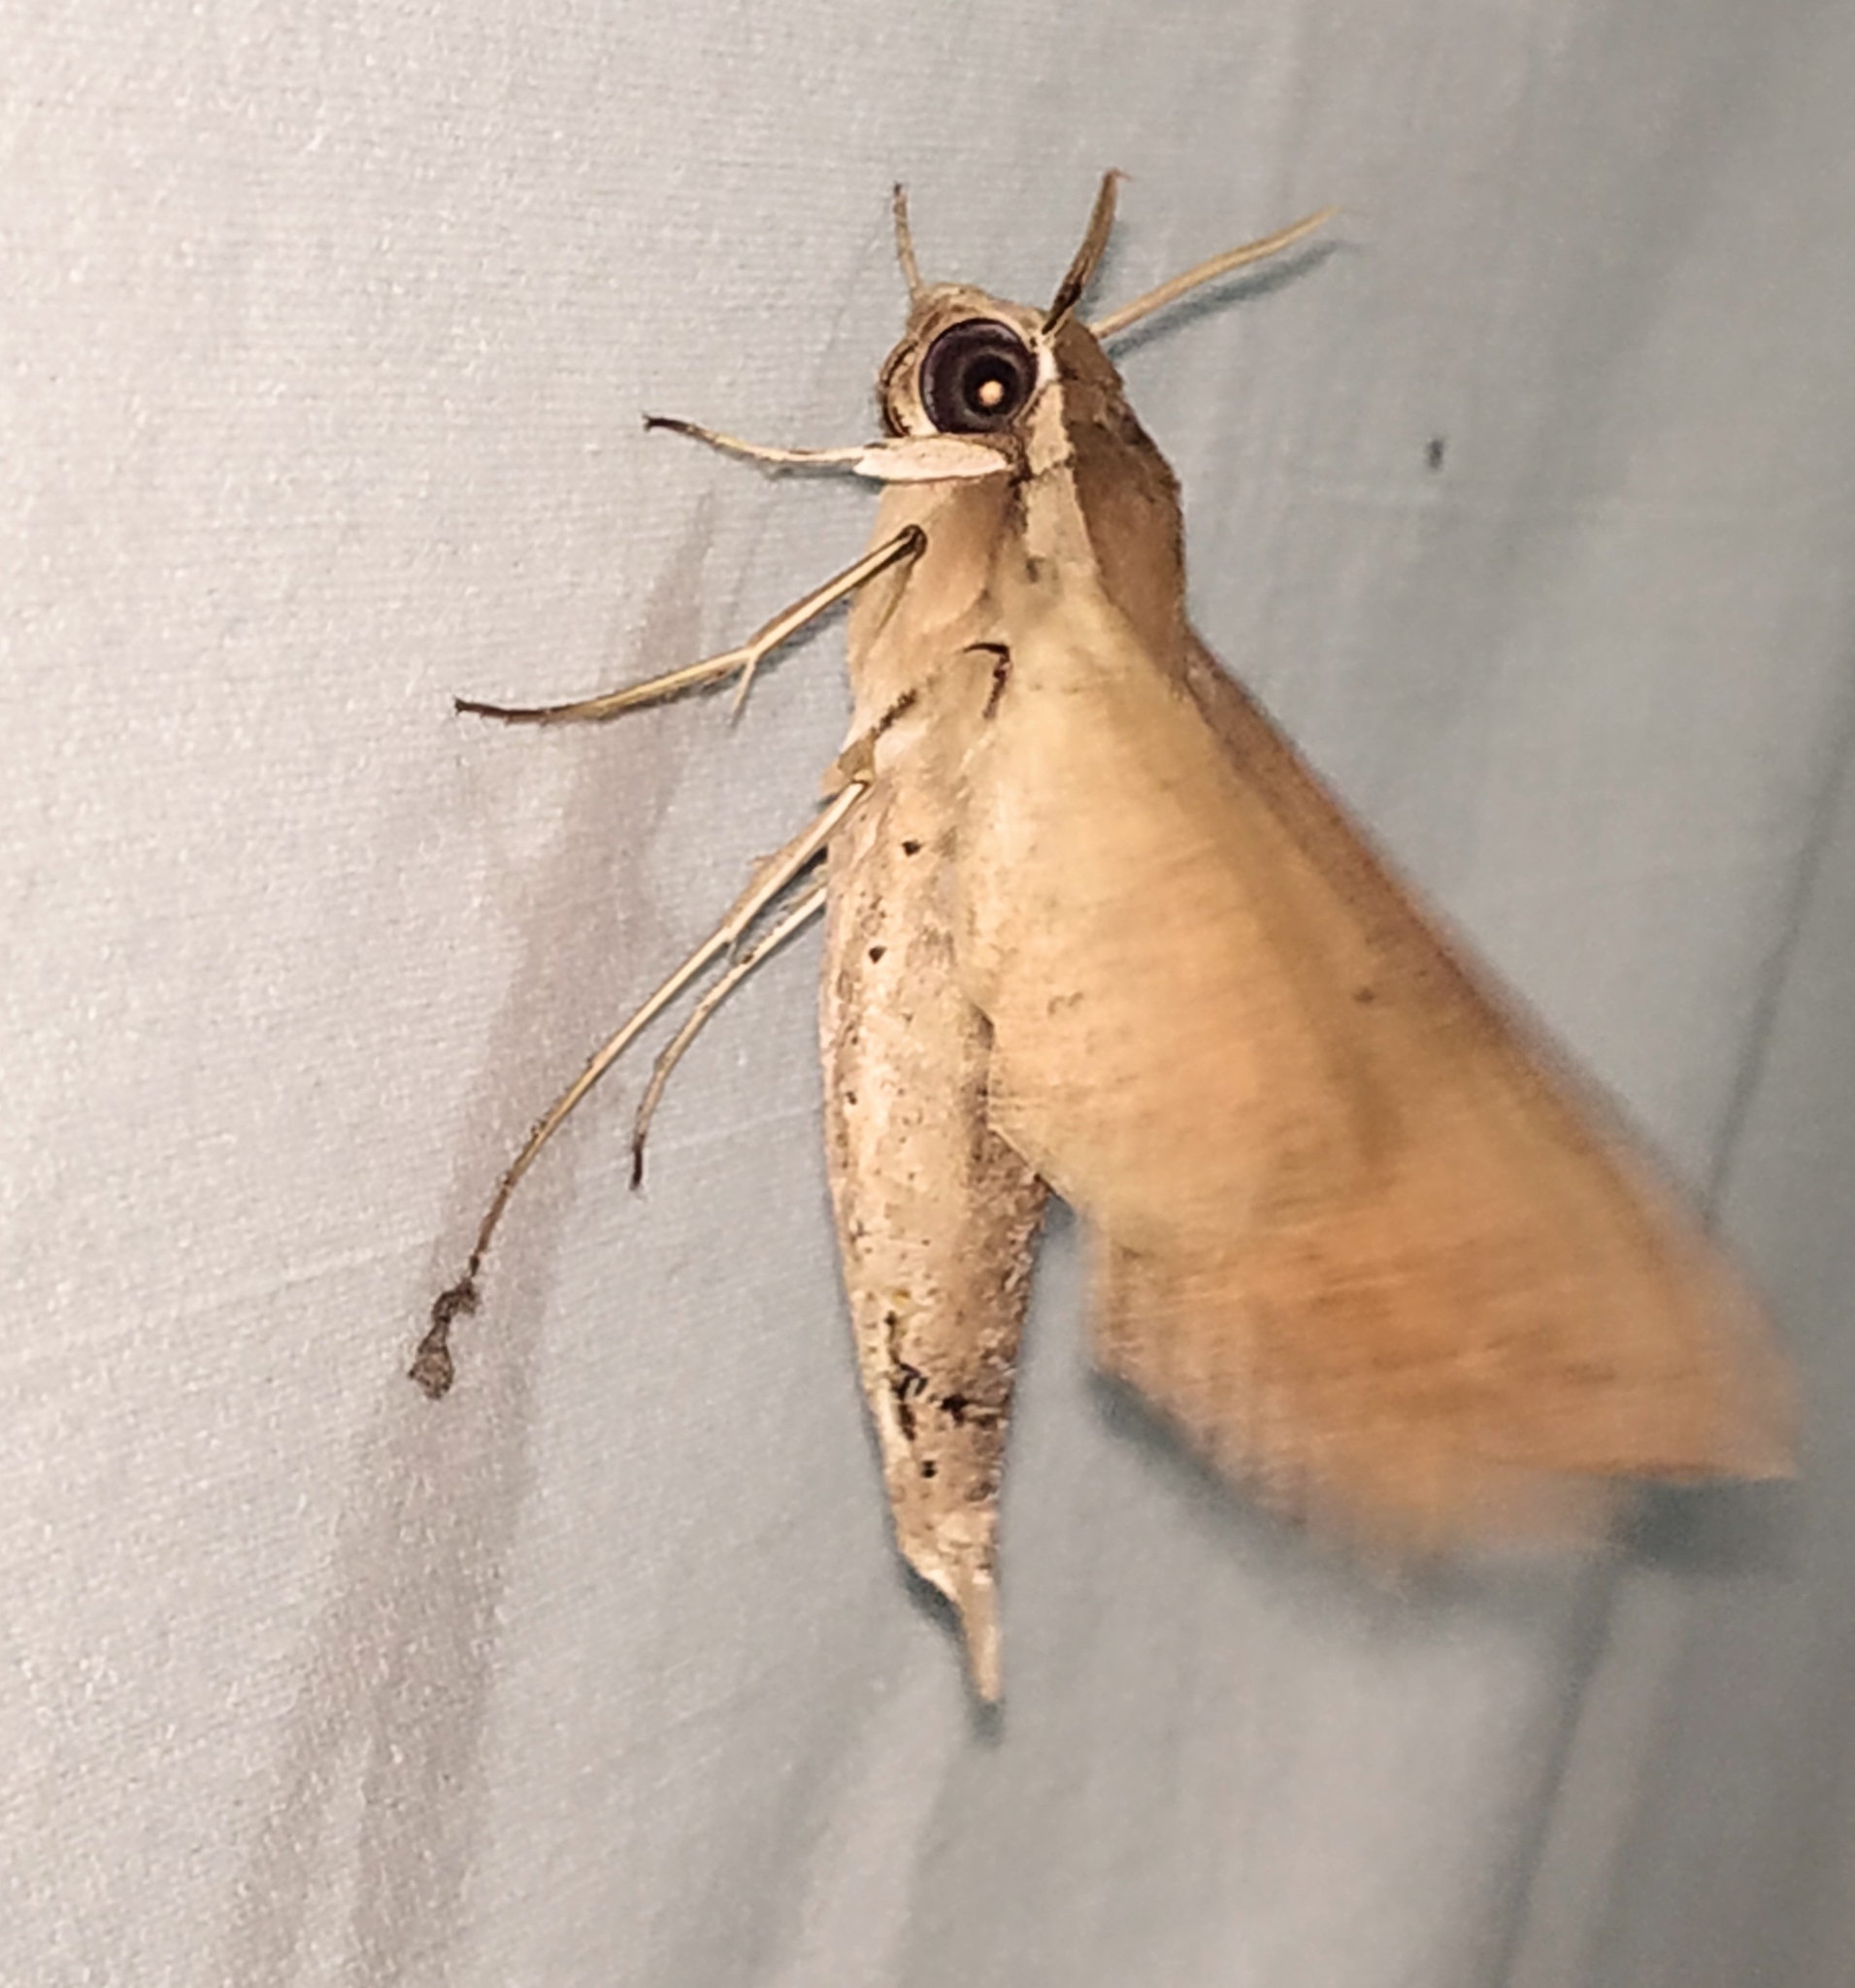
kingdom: Animalia
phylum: Arthropoda
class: Insecta
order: Lepidoptera
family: Sphingidae
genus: Theretra
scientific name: Theretra rhesus
